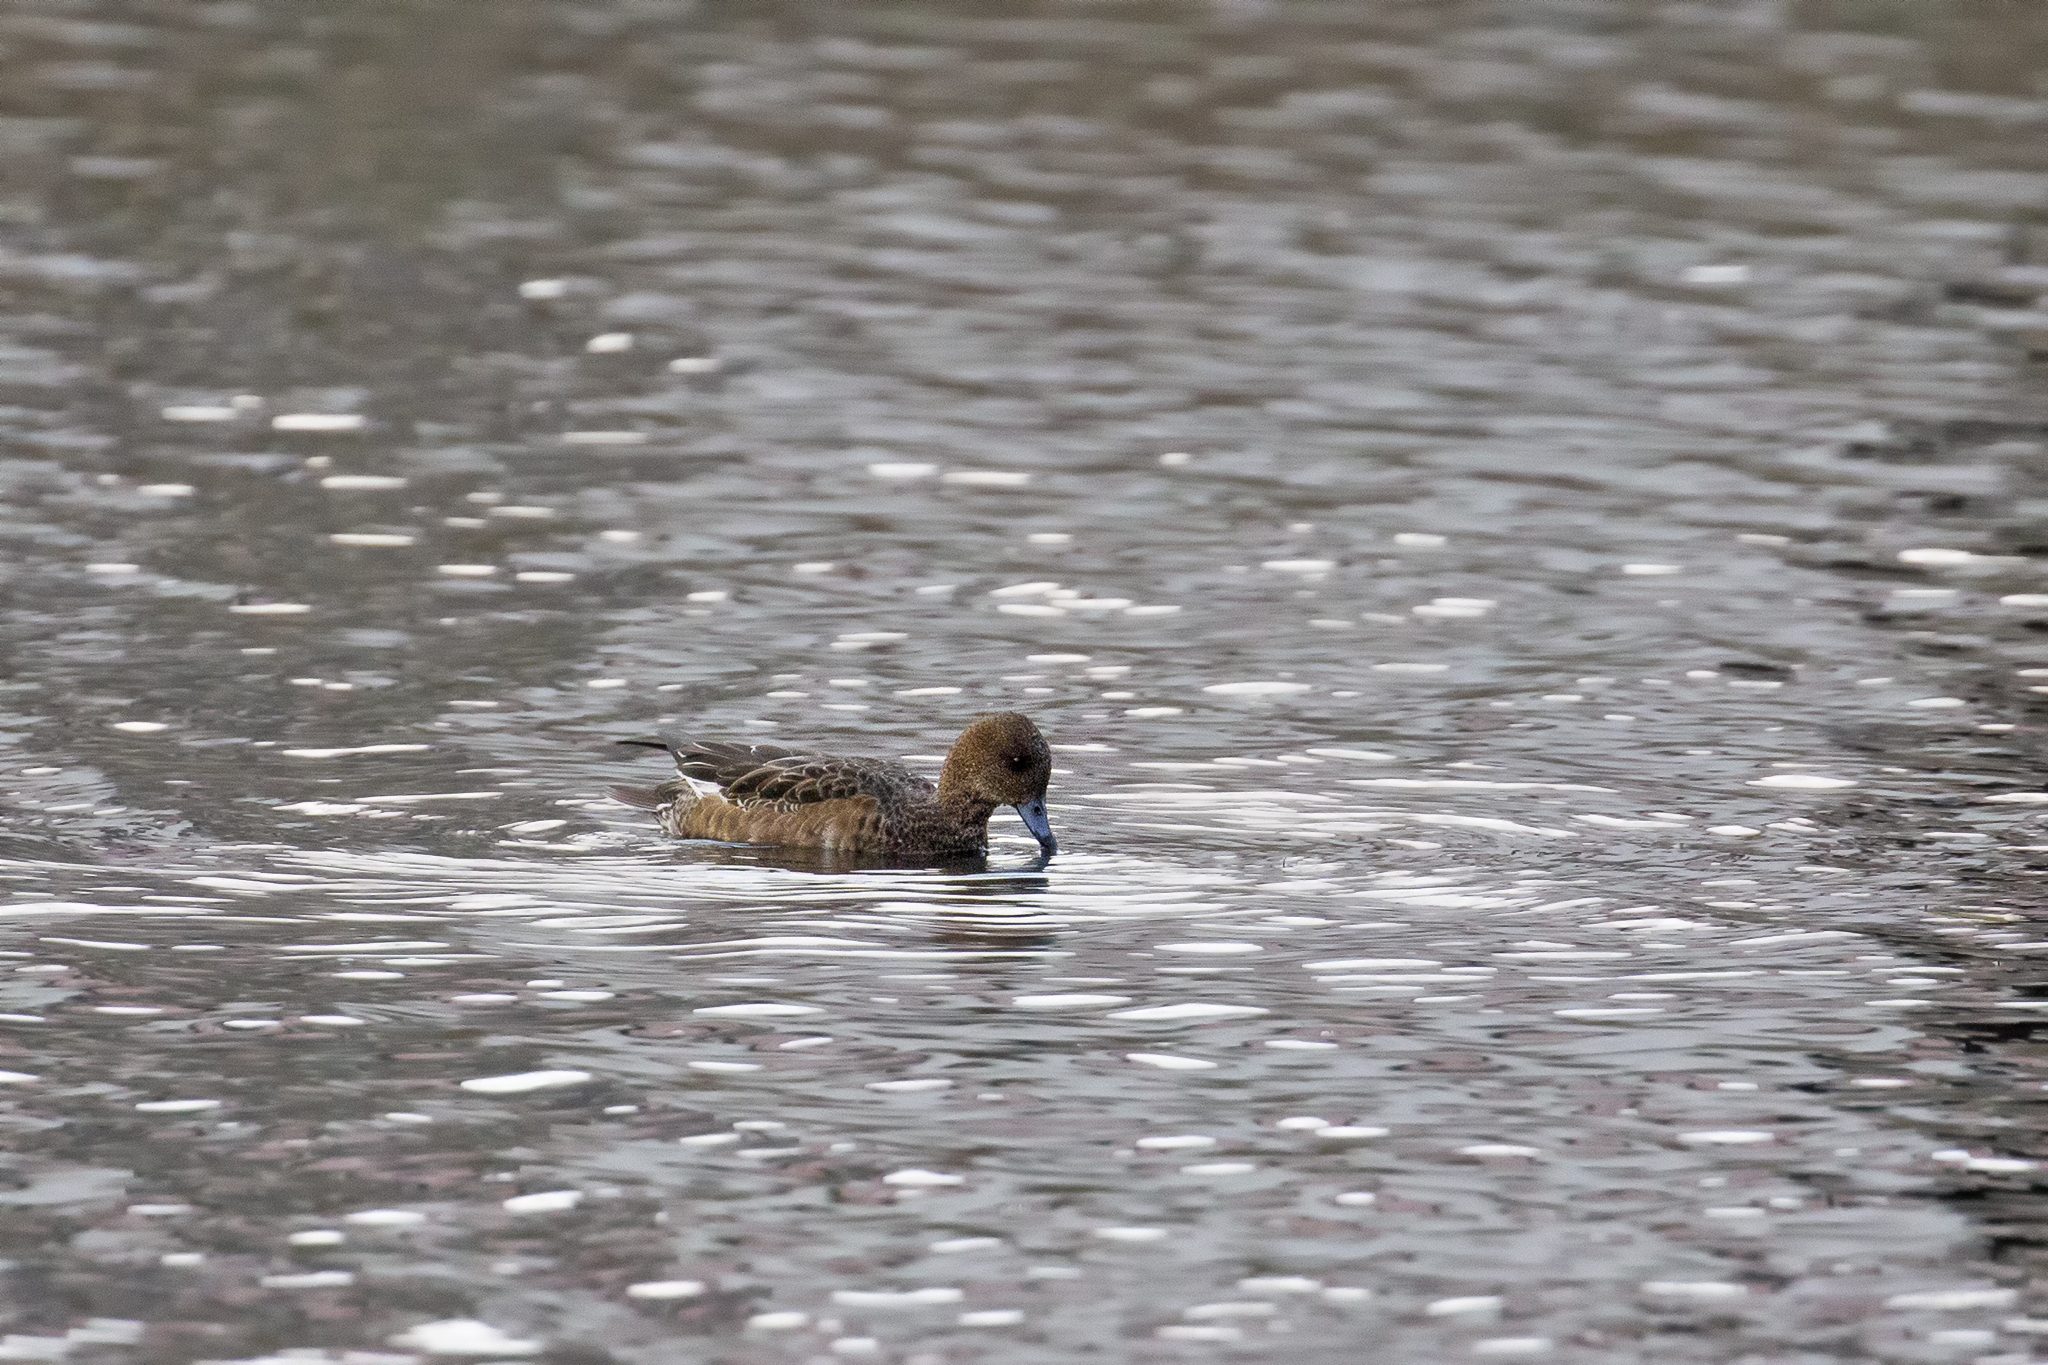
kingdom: Animalia
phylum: Chordata
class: Aves
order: Anseriformes
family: Anatidae
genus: Mareca
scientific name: Mareca penelope
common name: Eurasian wigeon
